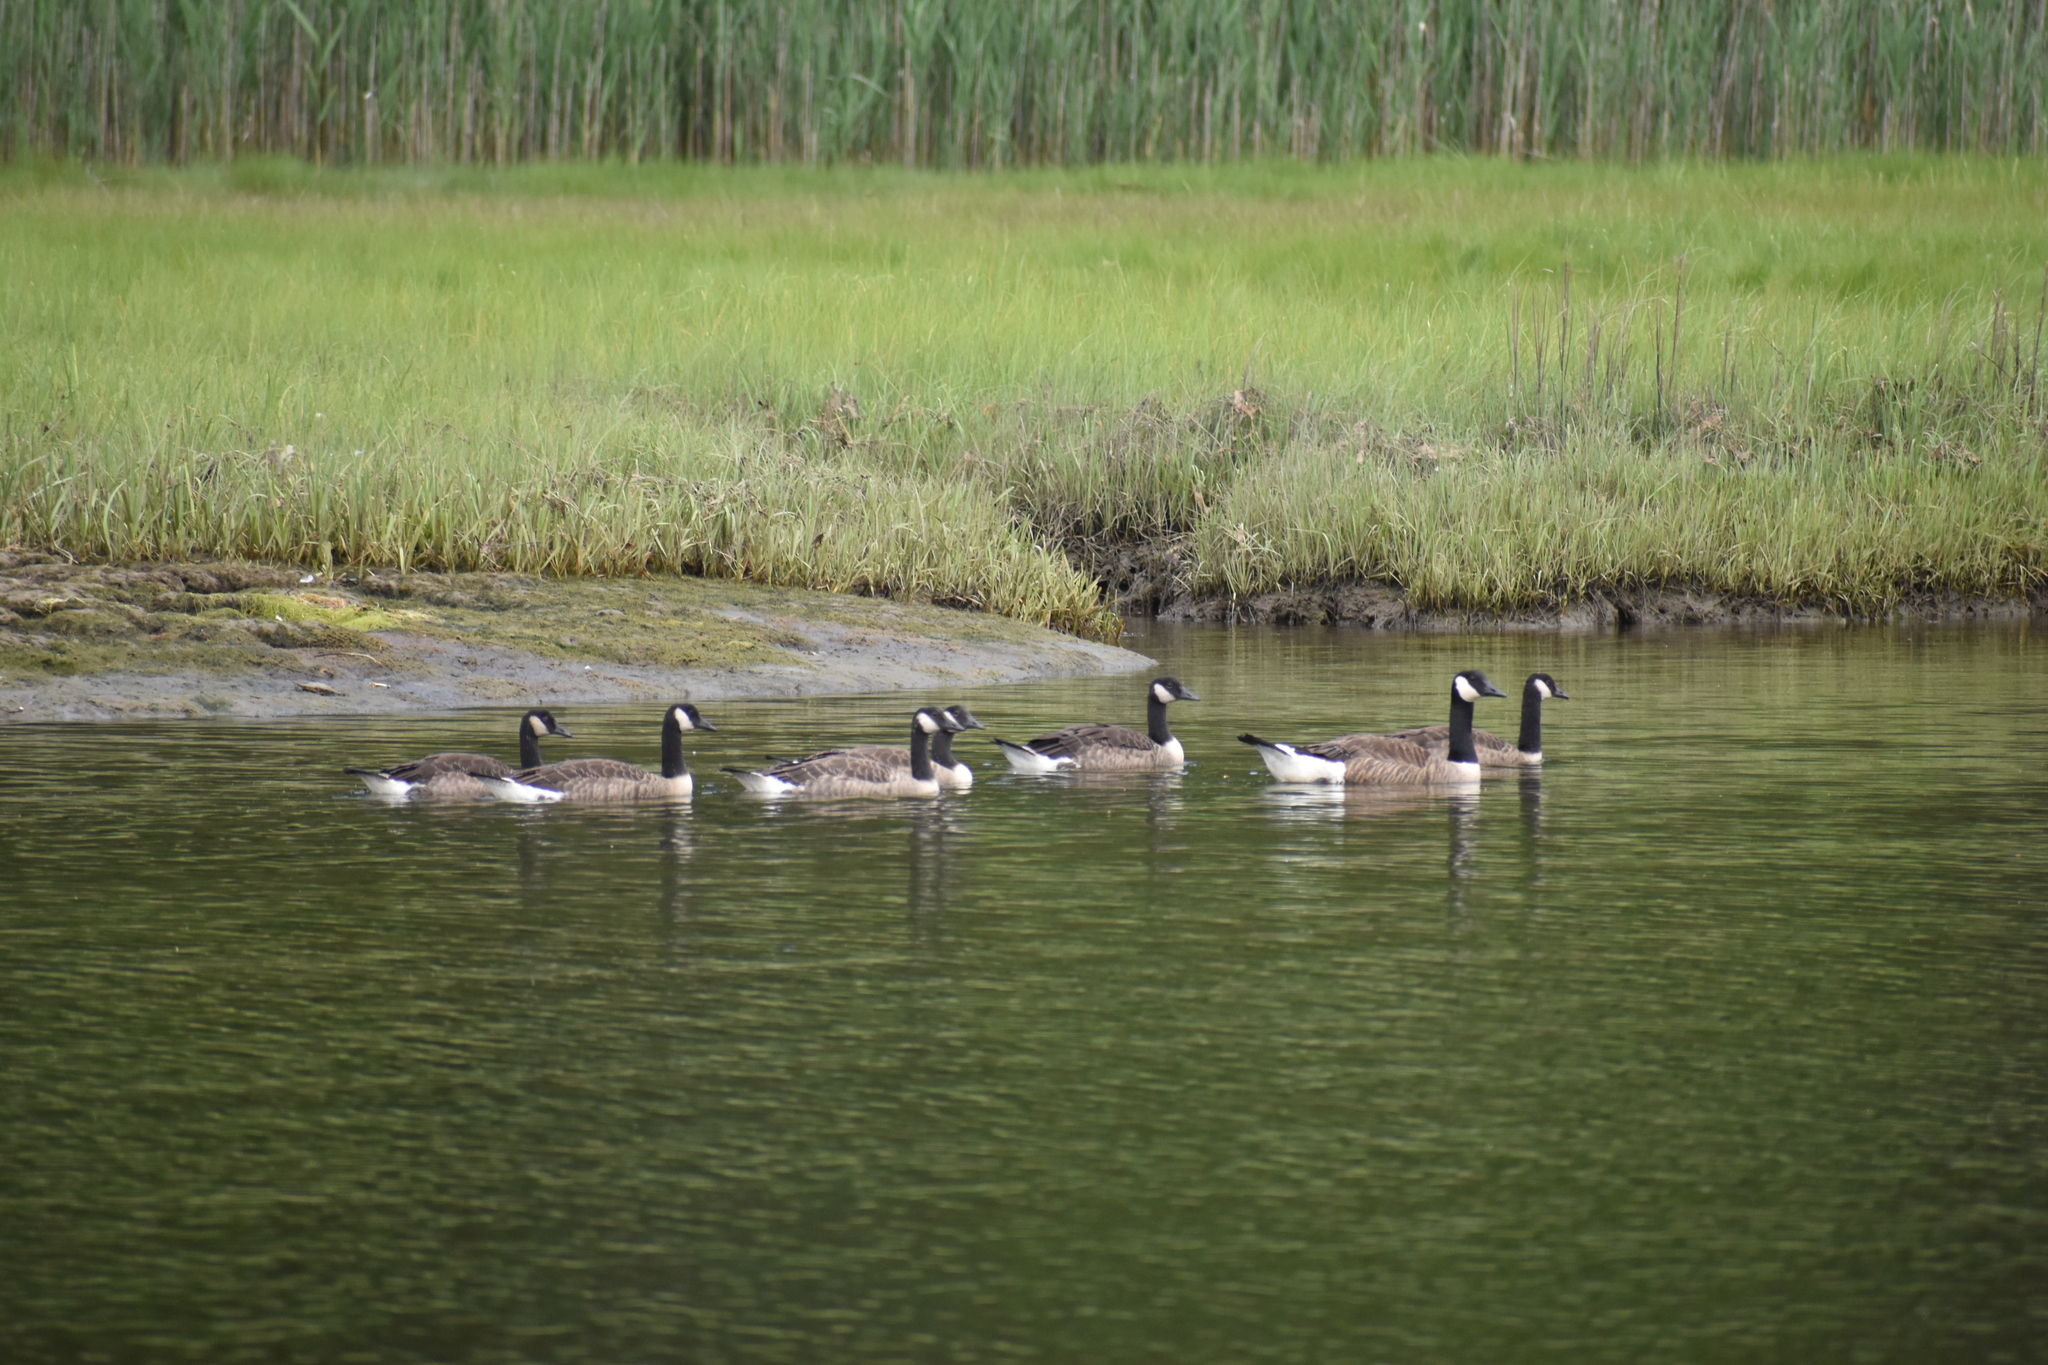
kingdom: Animalia
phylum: Chordata
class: Aves
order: Anseriformes
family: Anatidae
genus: Branta
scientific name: Branta canadensis
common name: Canada goose
